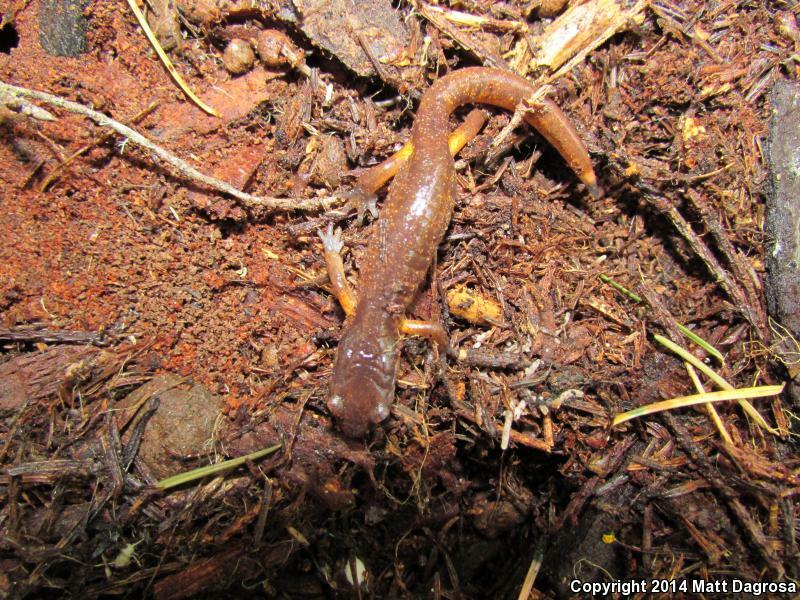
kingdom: Animalia
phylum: Chordata
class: Amphibia
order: Caudata
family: Plethodontidae
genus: Ensatina
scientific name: Ensatina eschscholtzii
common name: Ensatina
